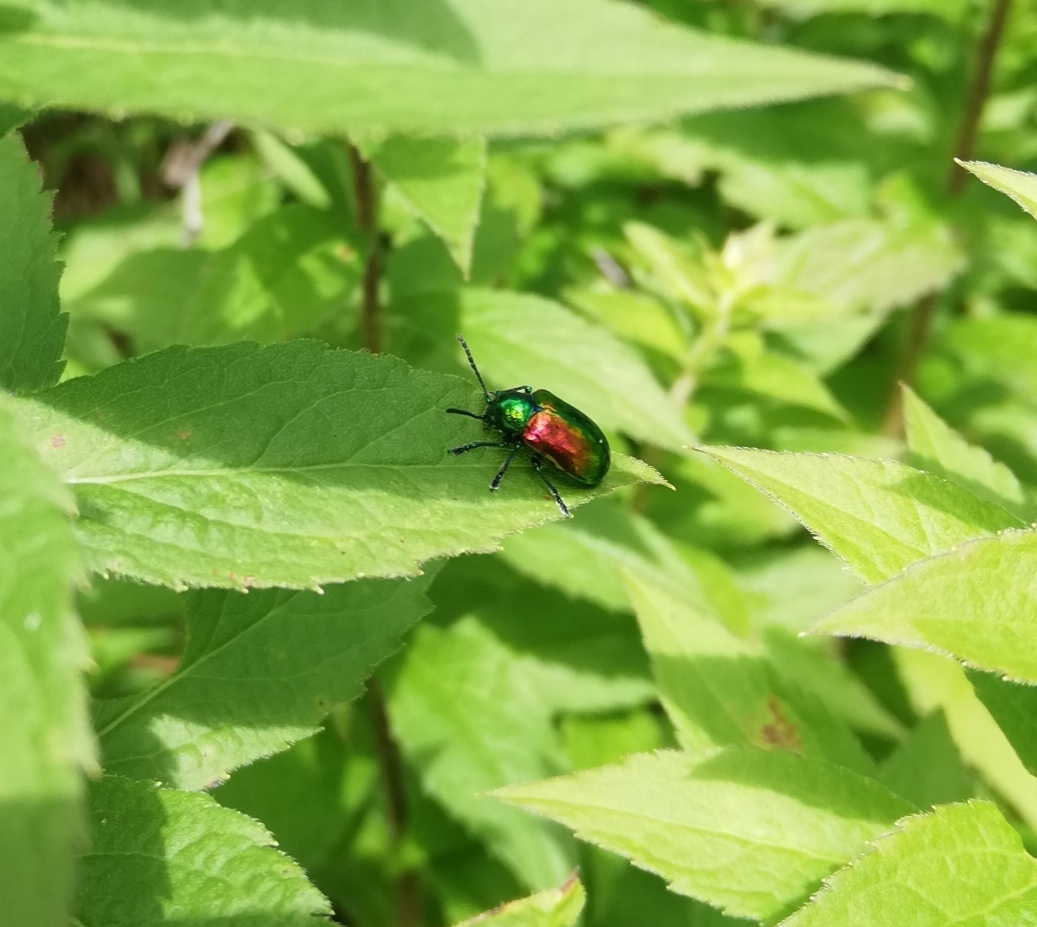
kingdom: Animalia
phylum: Arthropoda
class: Insecta
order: Coleoptera
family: Chrysomelidae
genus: Chrysochus
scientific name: Chrysochus auratus
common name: Dogbane leaf beetle
